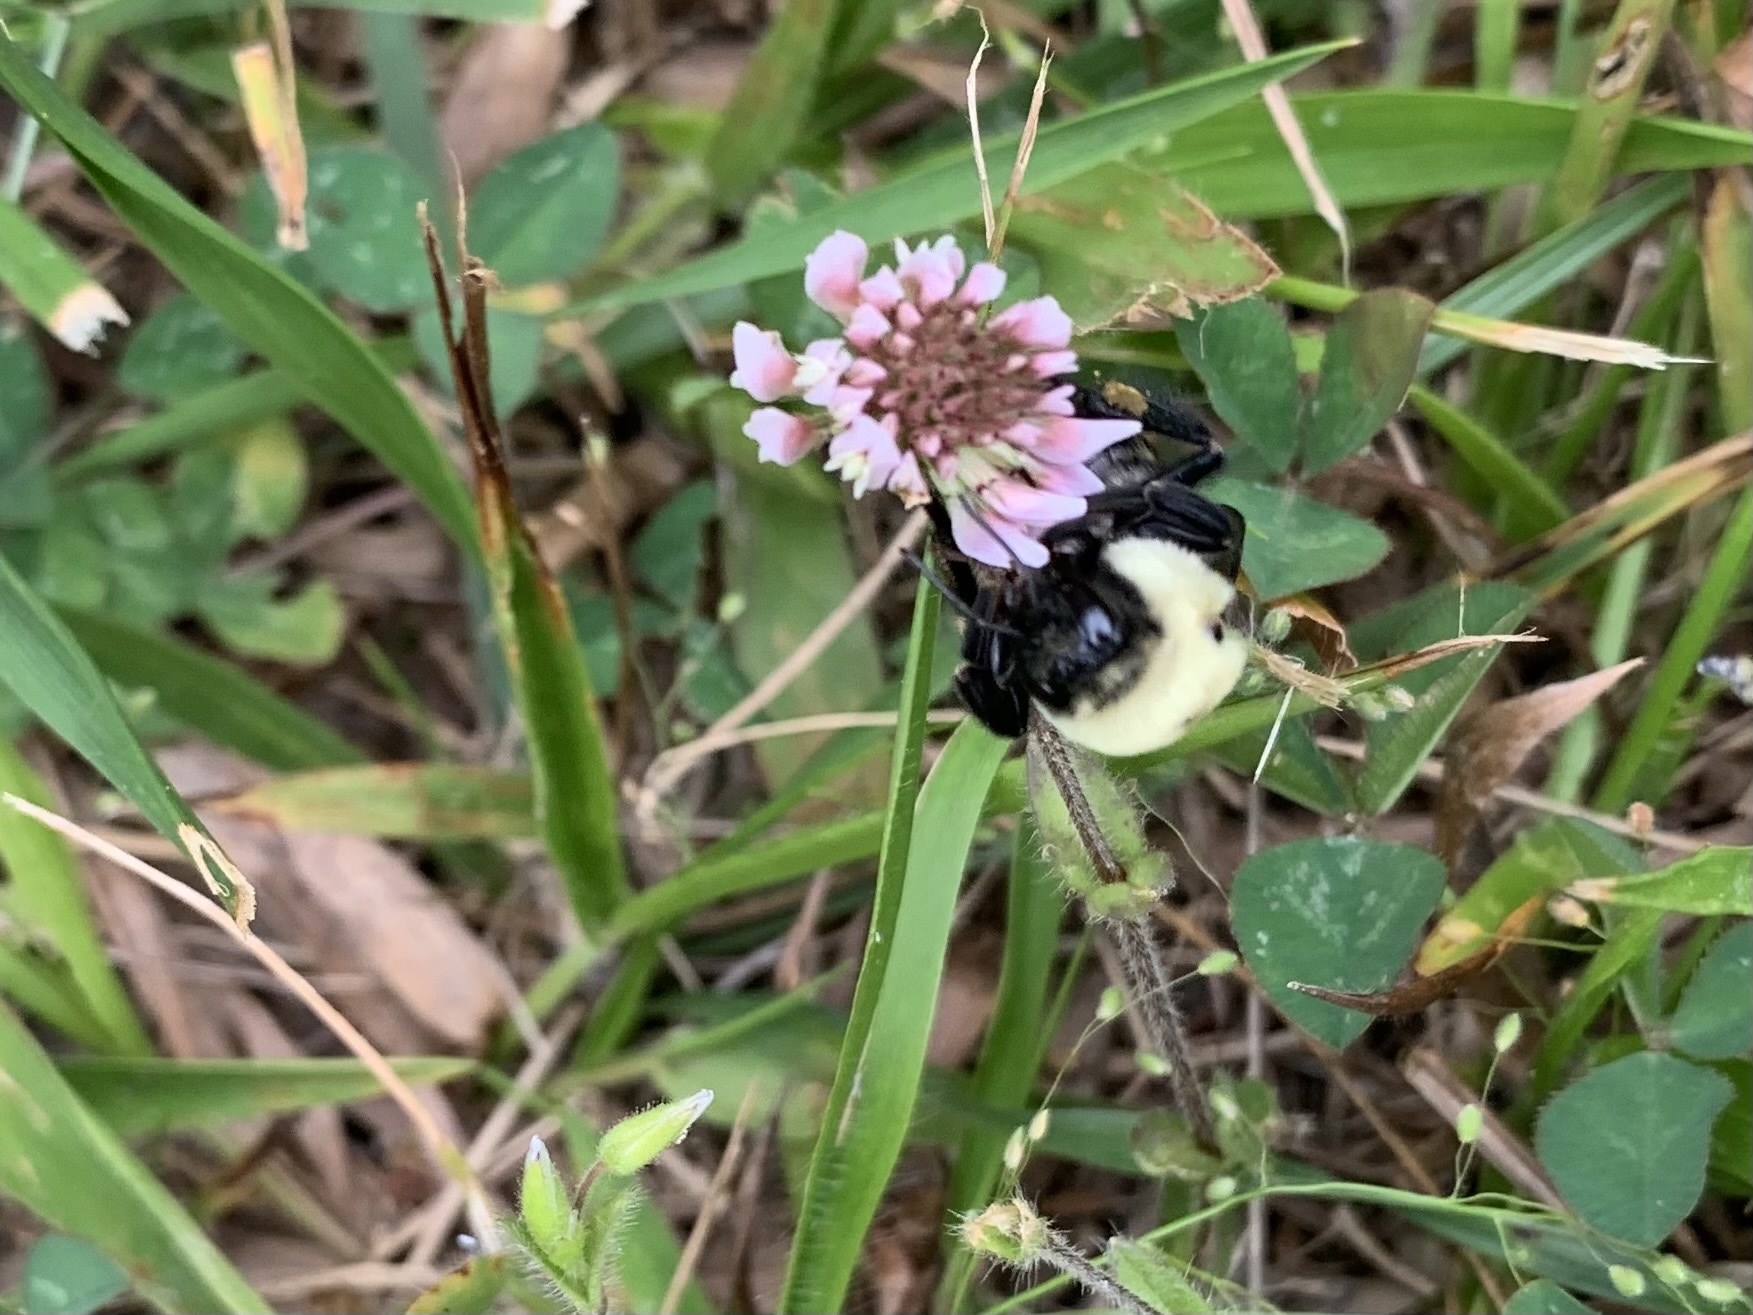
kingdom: Animalia
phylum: Arthropoda
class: Insecta
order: Hymenoptera
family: Apidae
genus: Bombus
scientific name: Bombus griseocollis
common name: Brown-belted bumble bee
